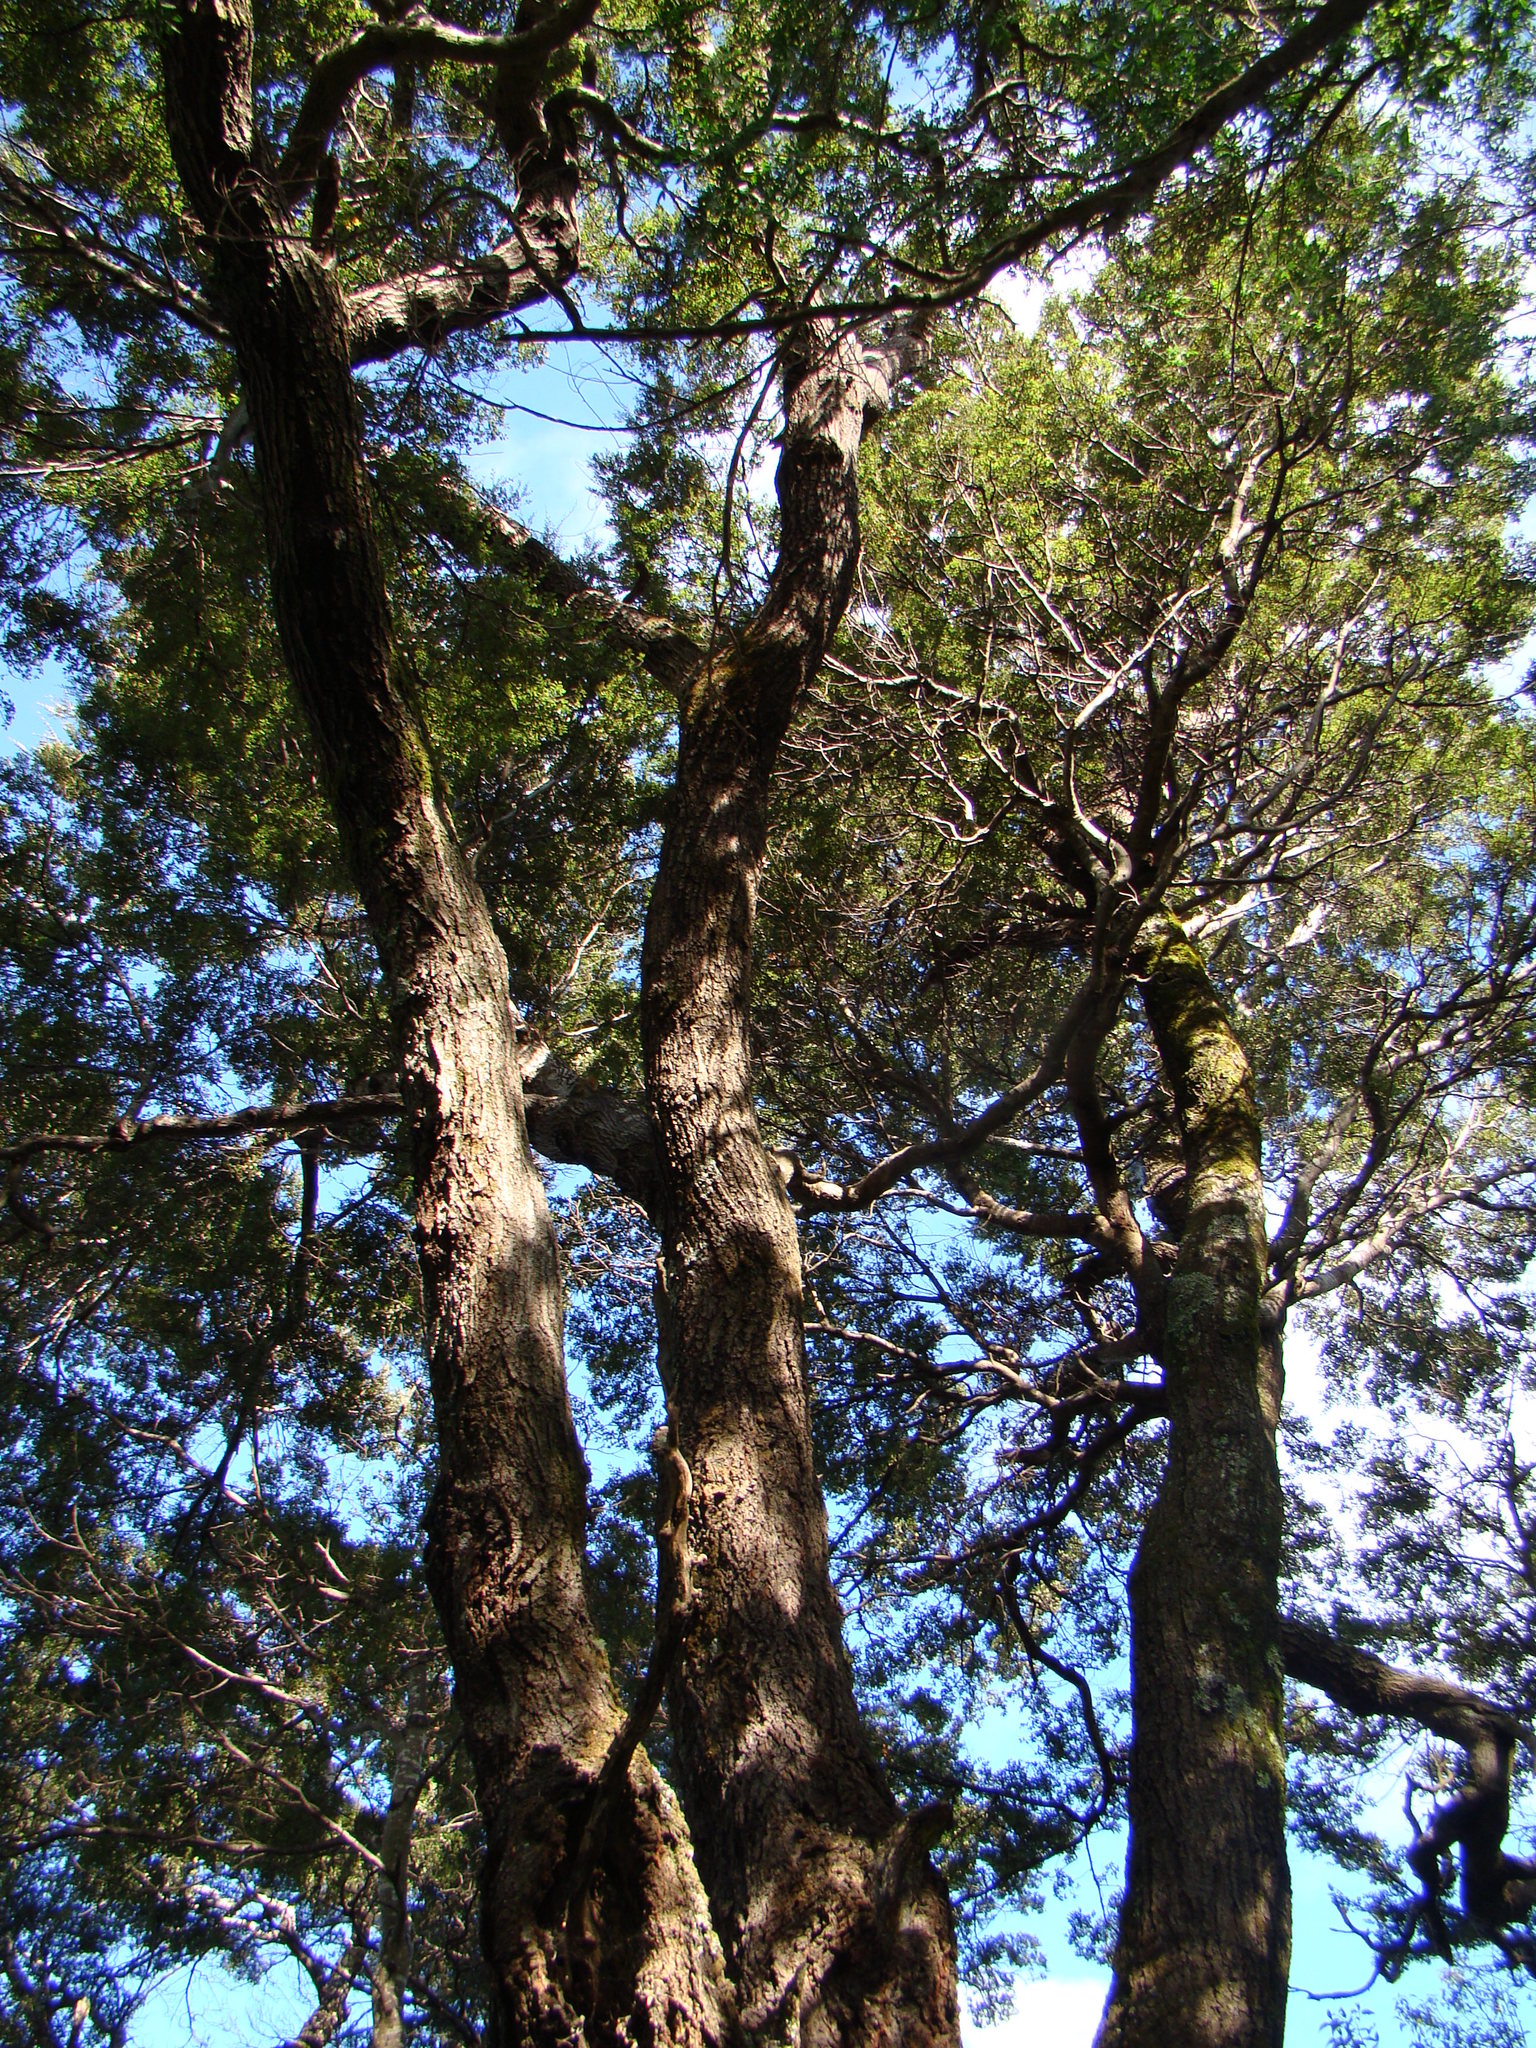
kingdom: Plantae
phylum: Tracheophyta
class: Magnoliopsida
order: Fagales
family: Nothofagaceae
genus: Nothofagus
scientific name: Nothofagus solandri
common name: Black beech
